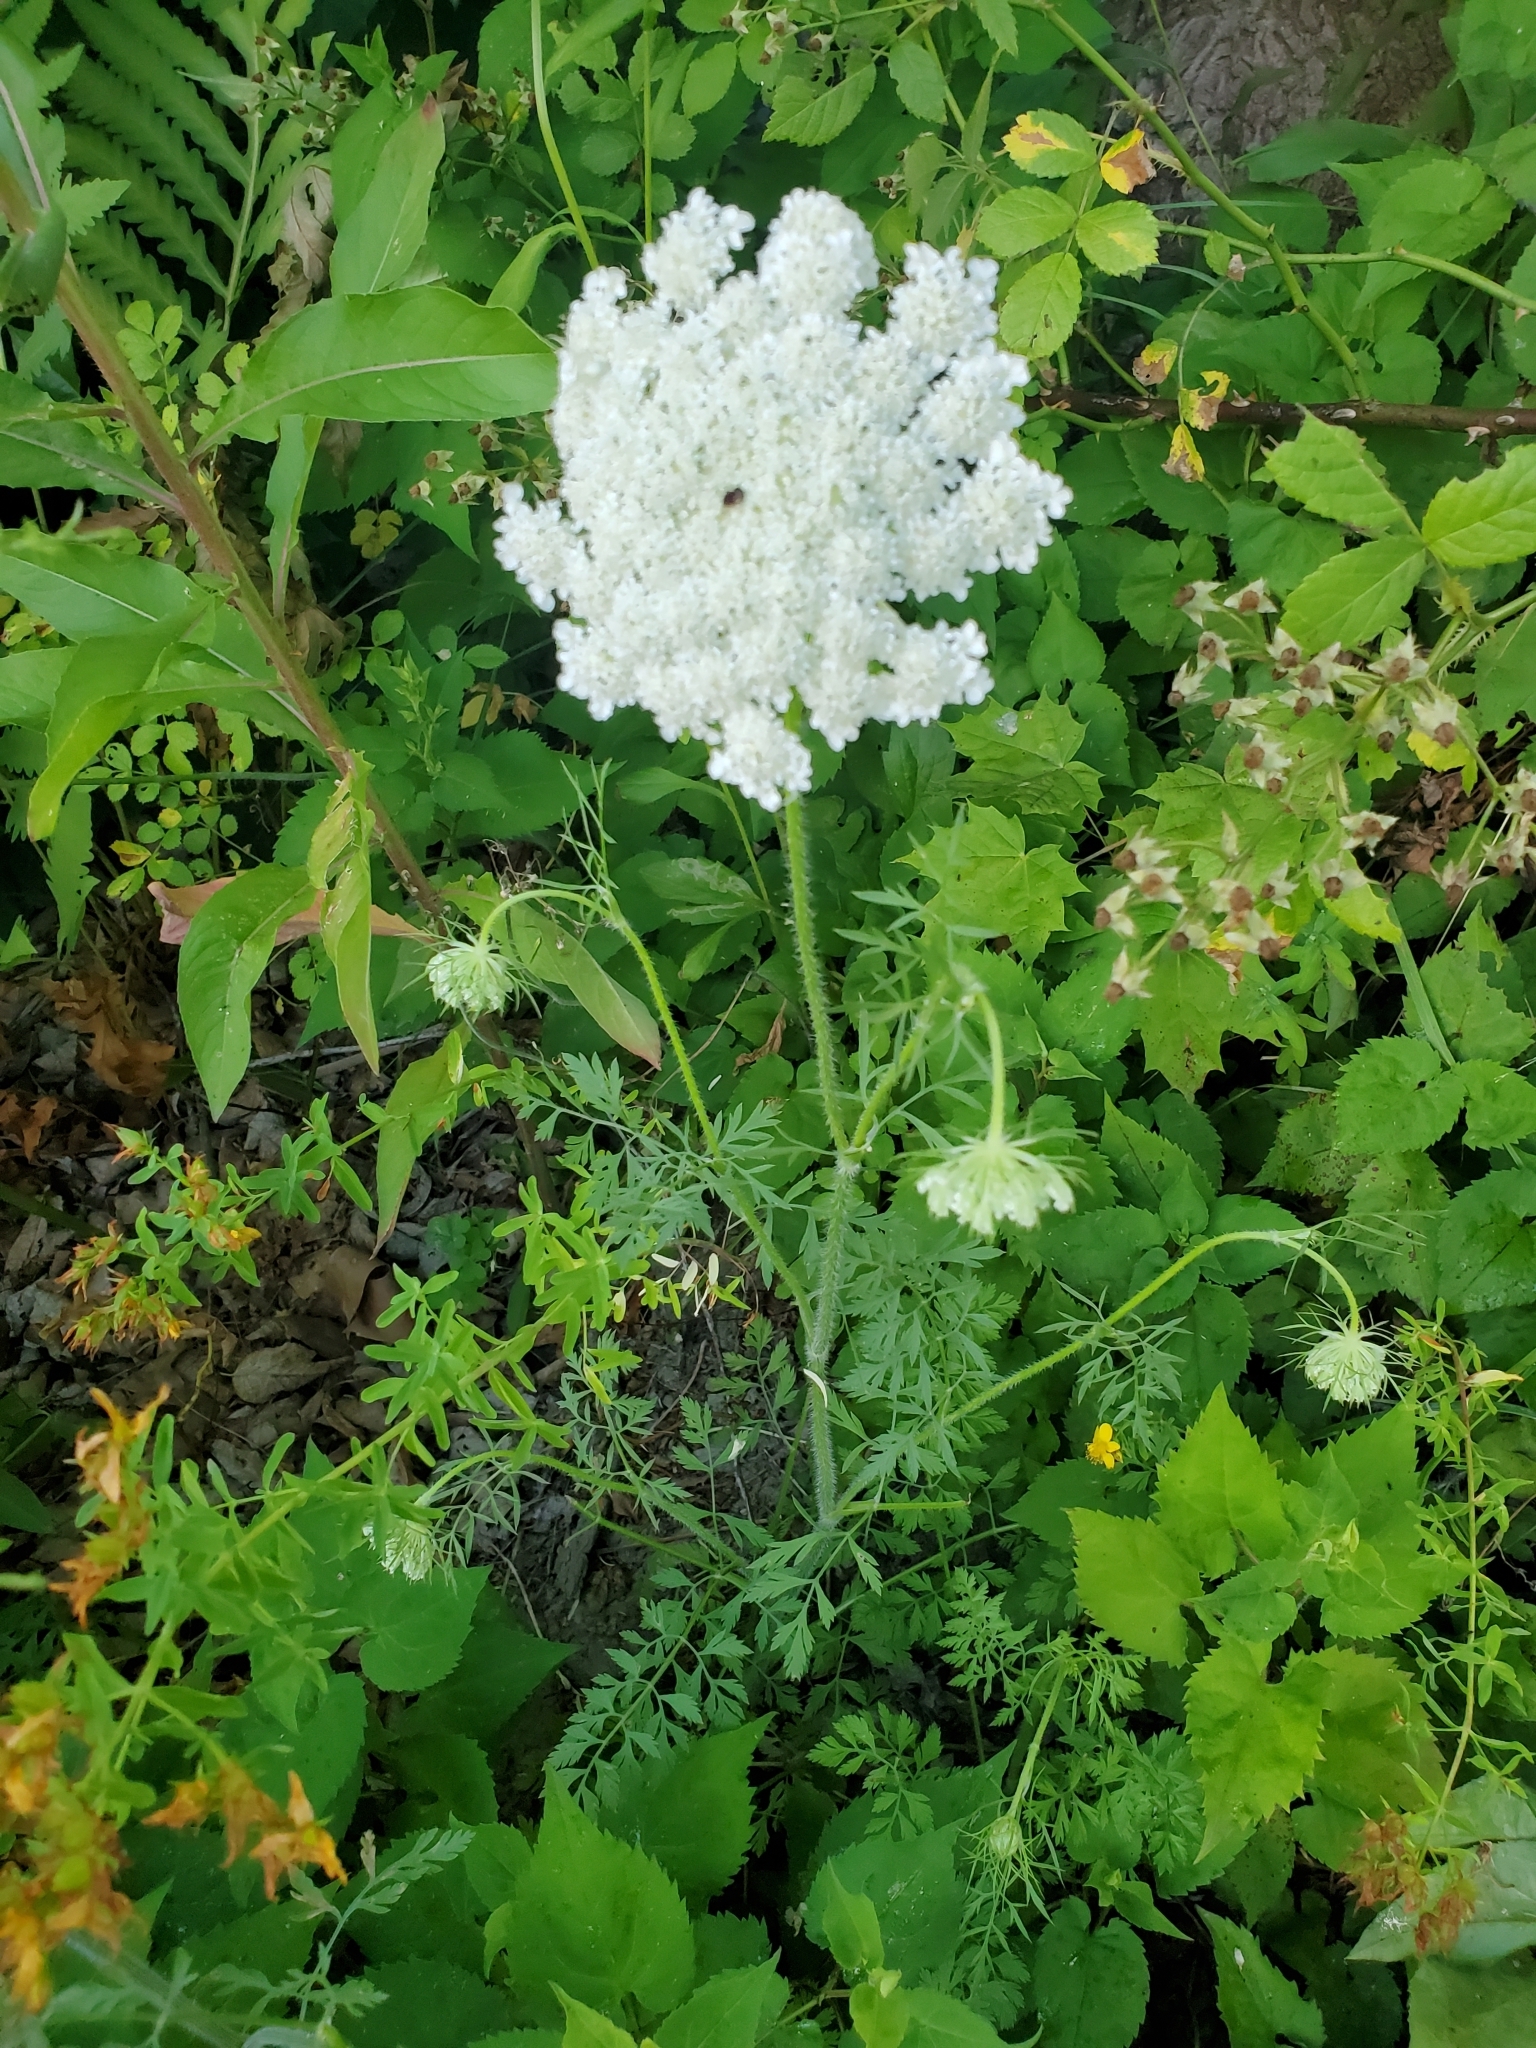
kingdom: Plantae
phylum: Tracheophyta
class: Magnoliopsida
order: Apiales
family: Apiaceae
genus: Daucus
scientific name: Daucus carota
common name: Wild carrot
